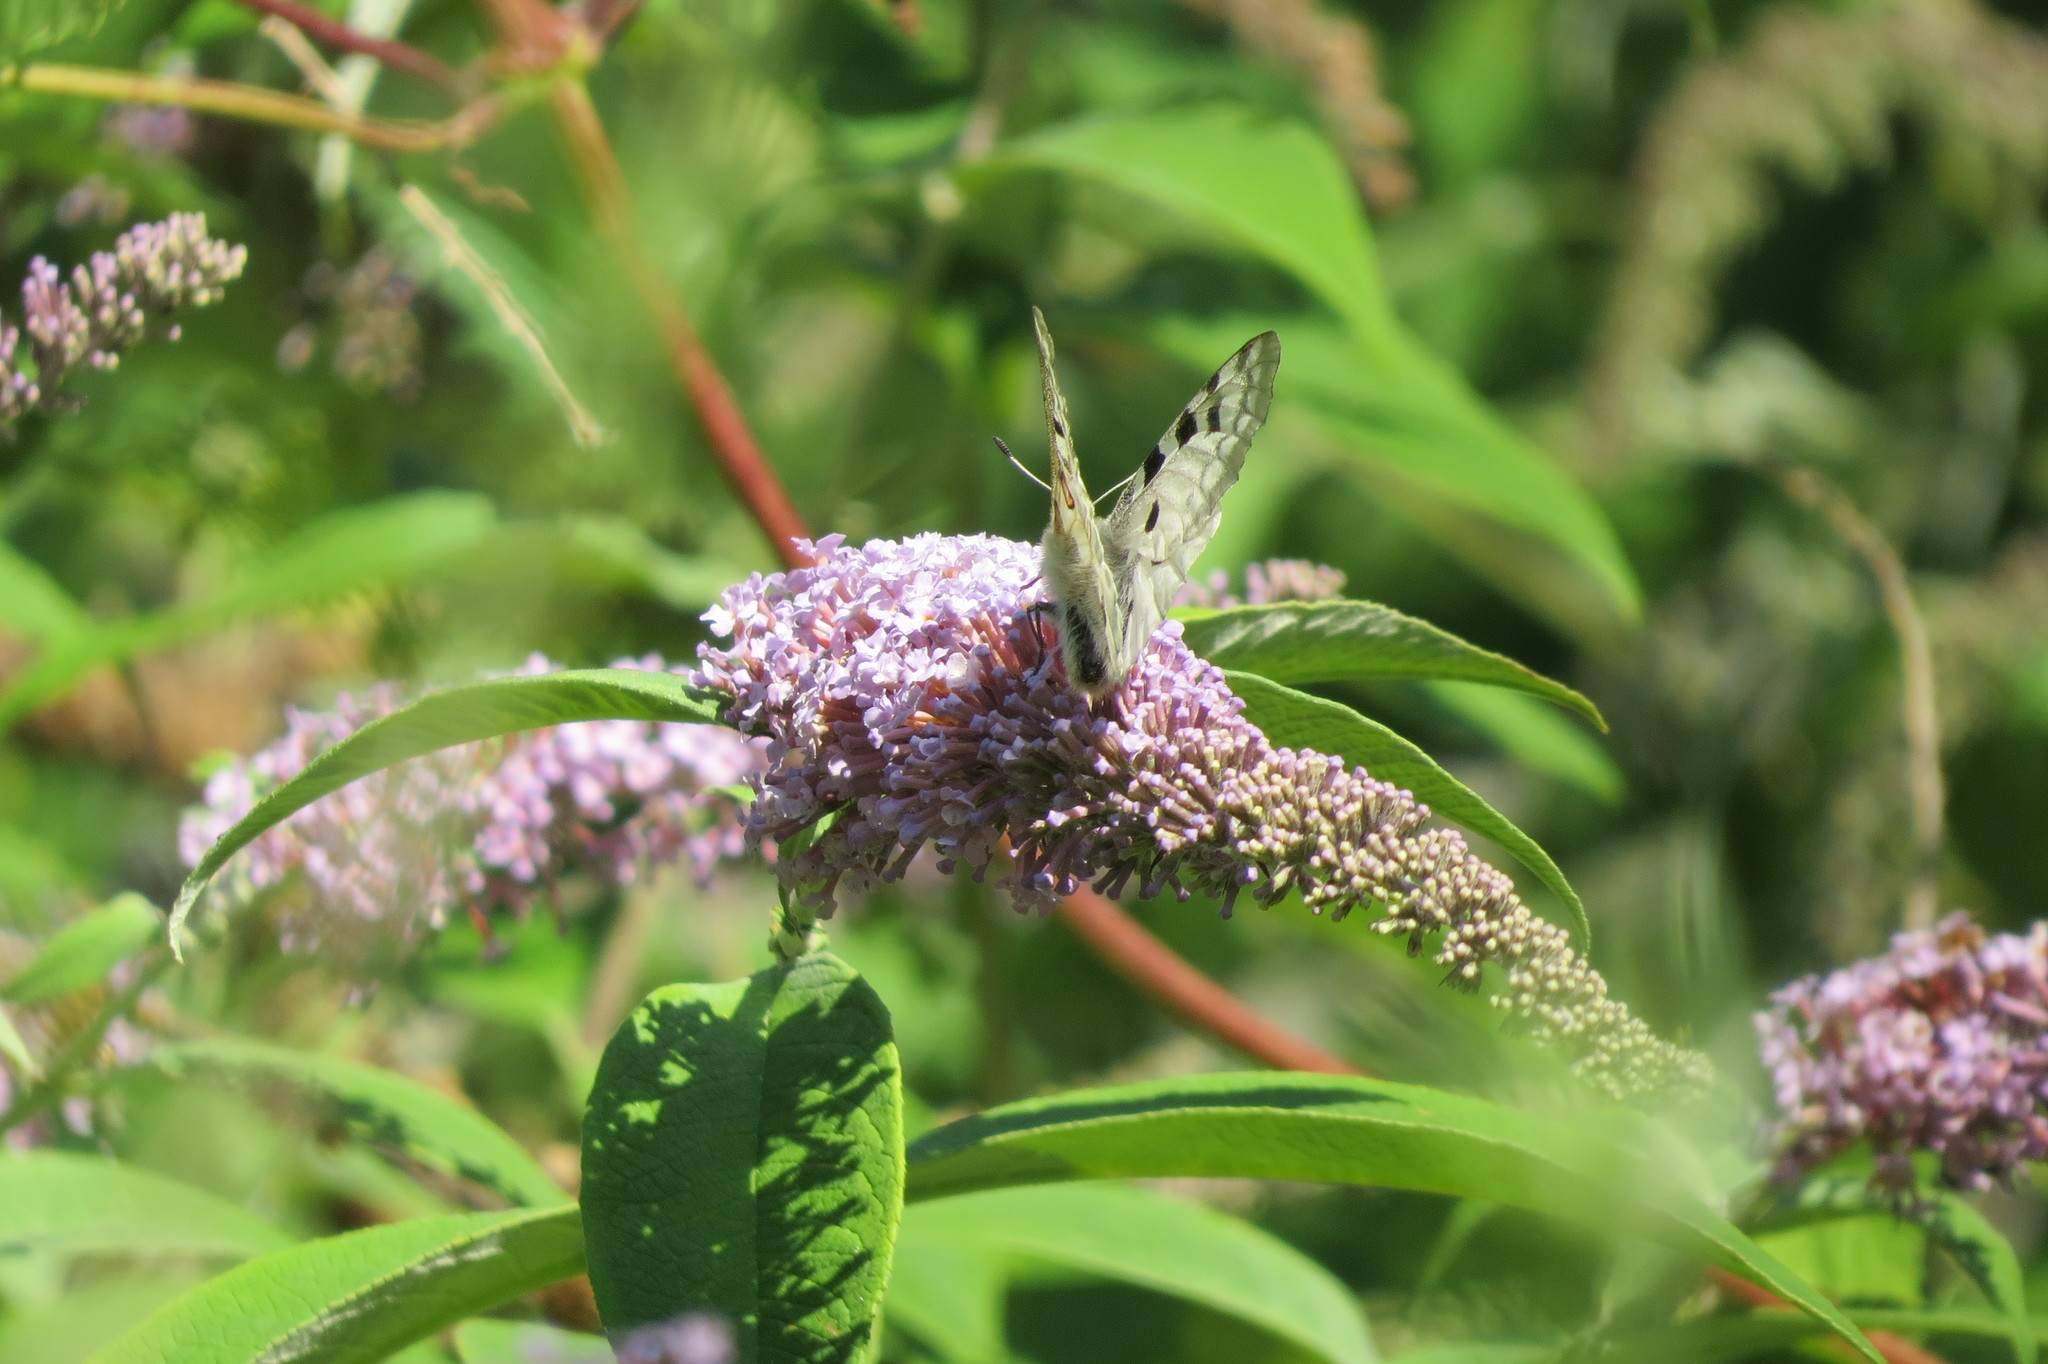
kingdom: Animalia
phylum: Arthropoda
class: Insecta
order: Lepidoptera
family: Papilionidae
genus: Parnassius
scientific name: Parnassius apollo
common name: Apollo
